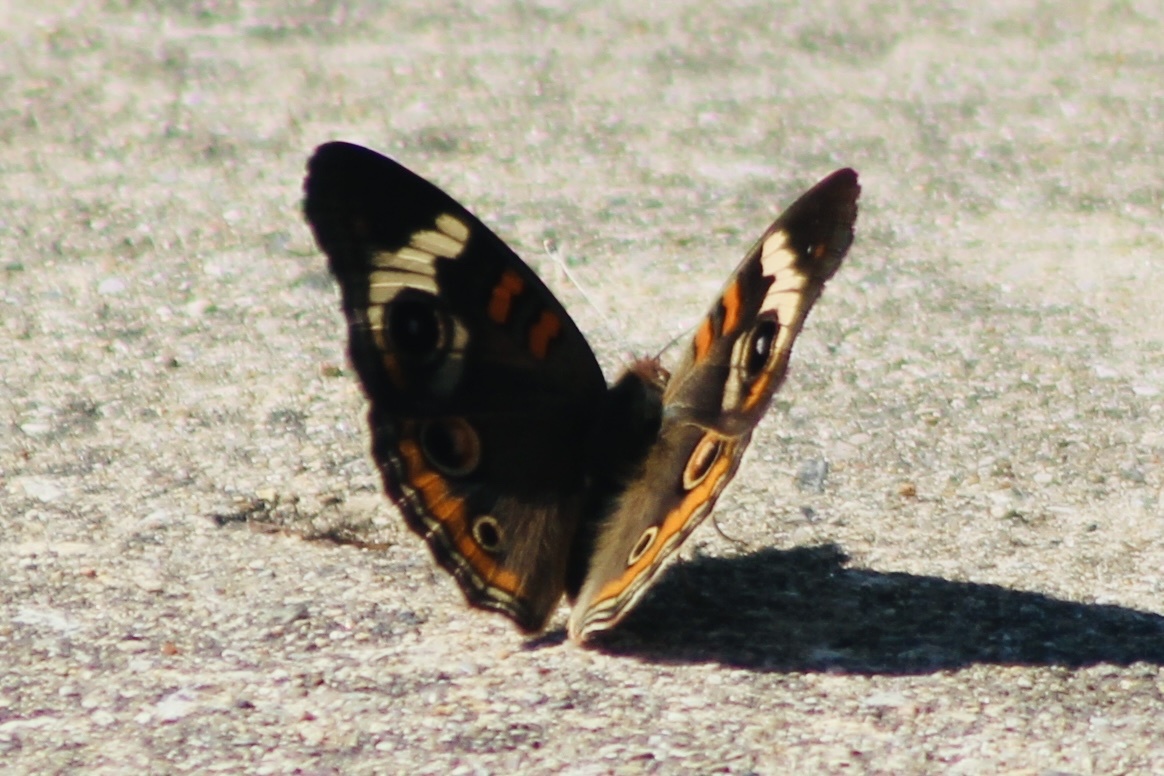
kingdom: Animalia
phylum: Arthropoda
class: Insecta
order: Lepidoptera
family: Nymphalidae
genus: Junonia
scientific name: Junonia coenia
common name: Common buckeye
